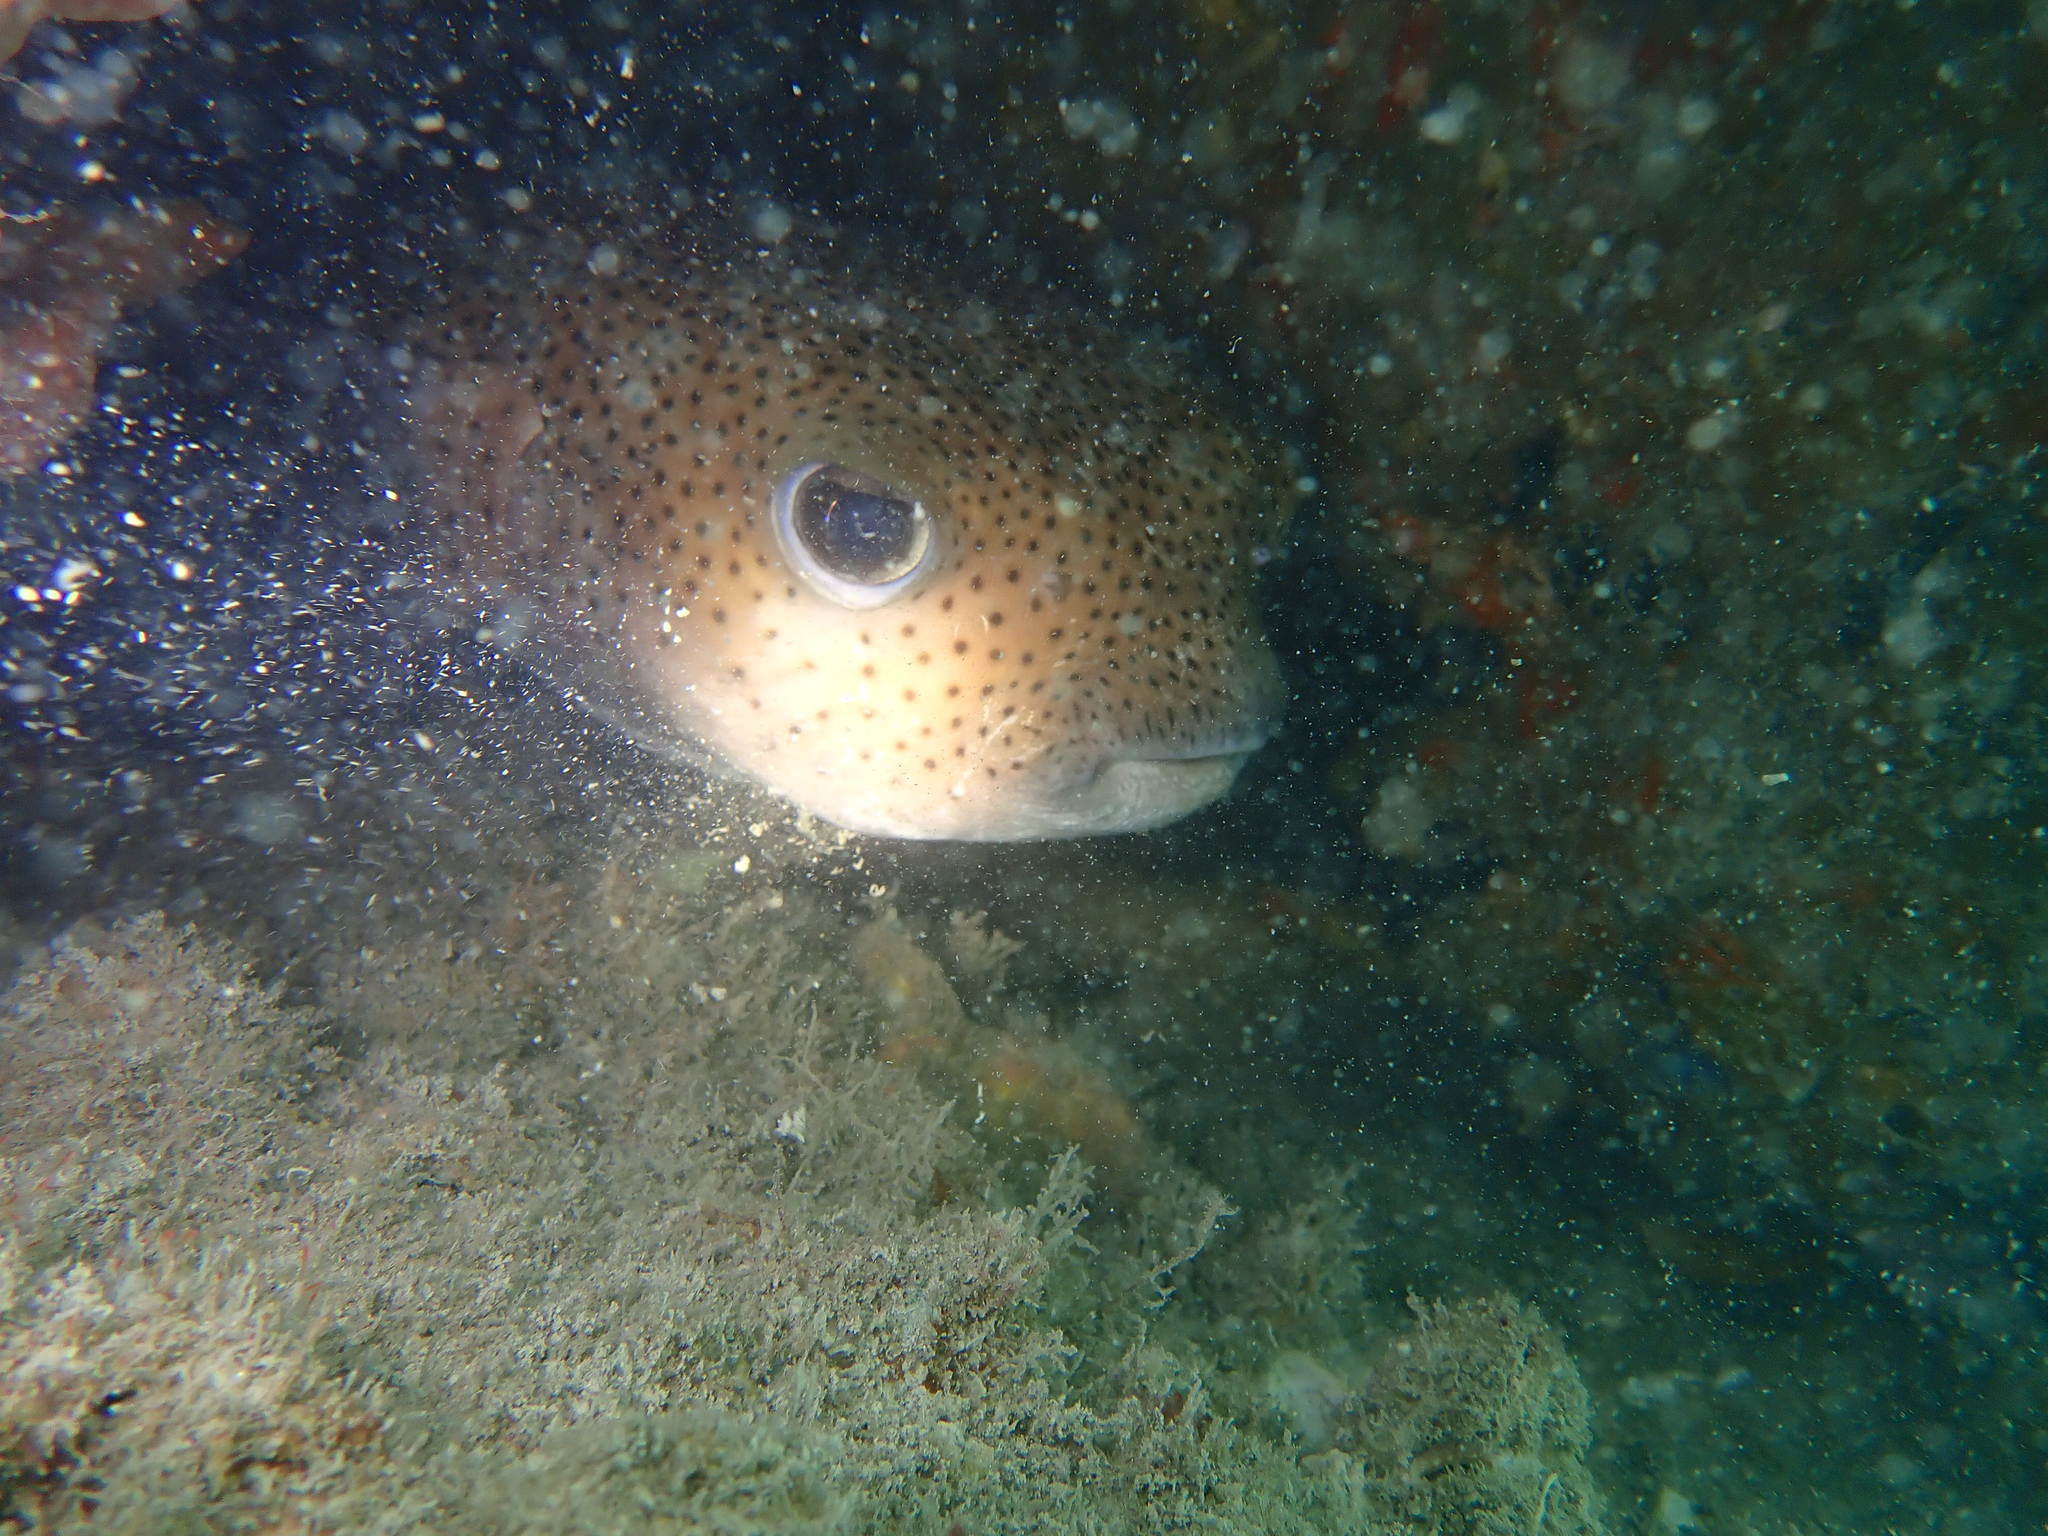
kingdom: Animalia
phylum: Chordata
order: Tetraodontiformes
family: Diodontidae
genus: Diodon
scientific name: Diodon hystrix
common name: Giant porcupinefish
